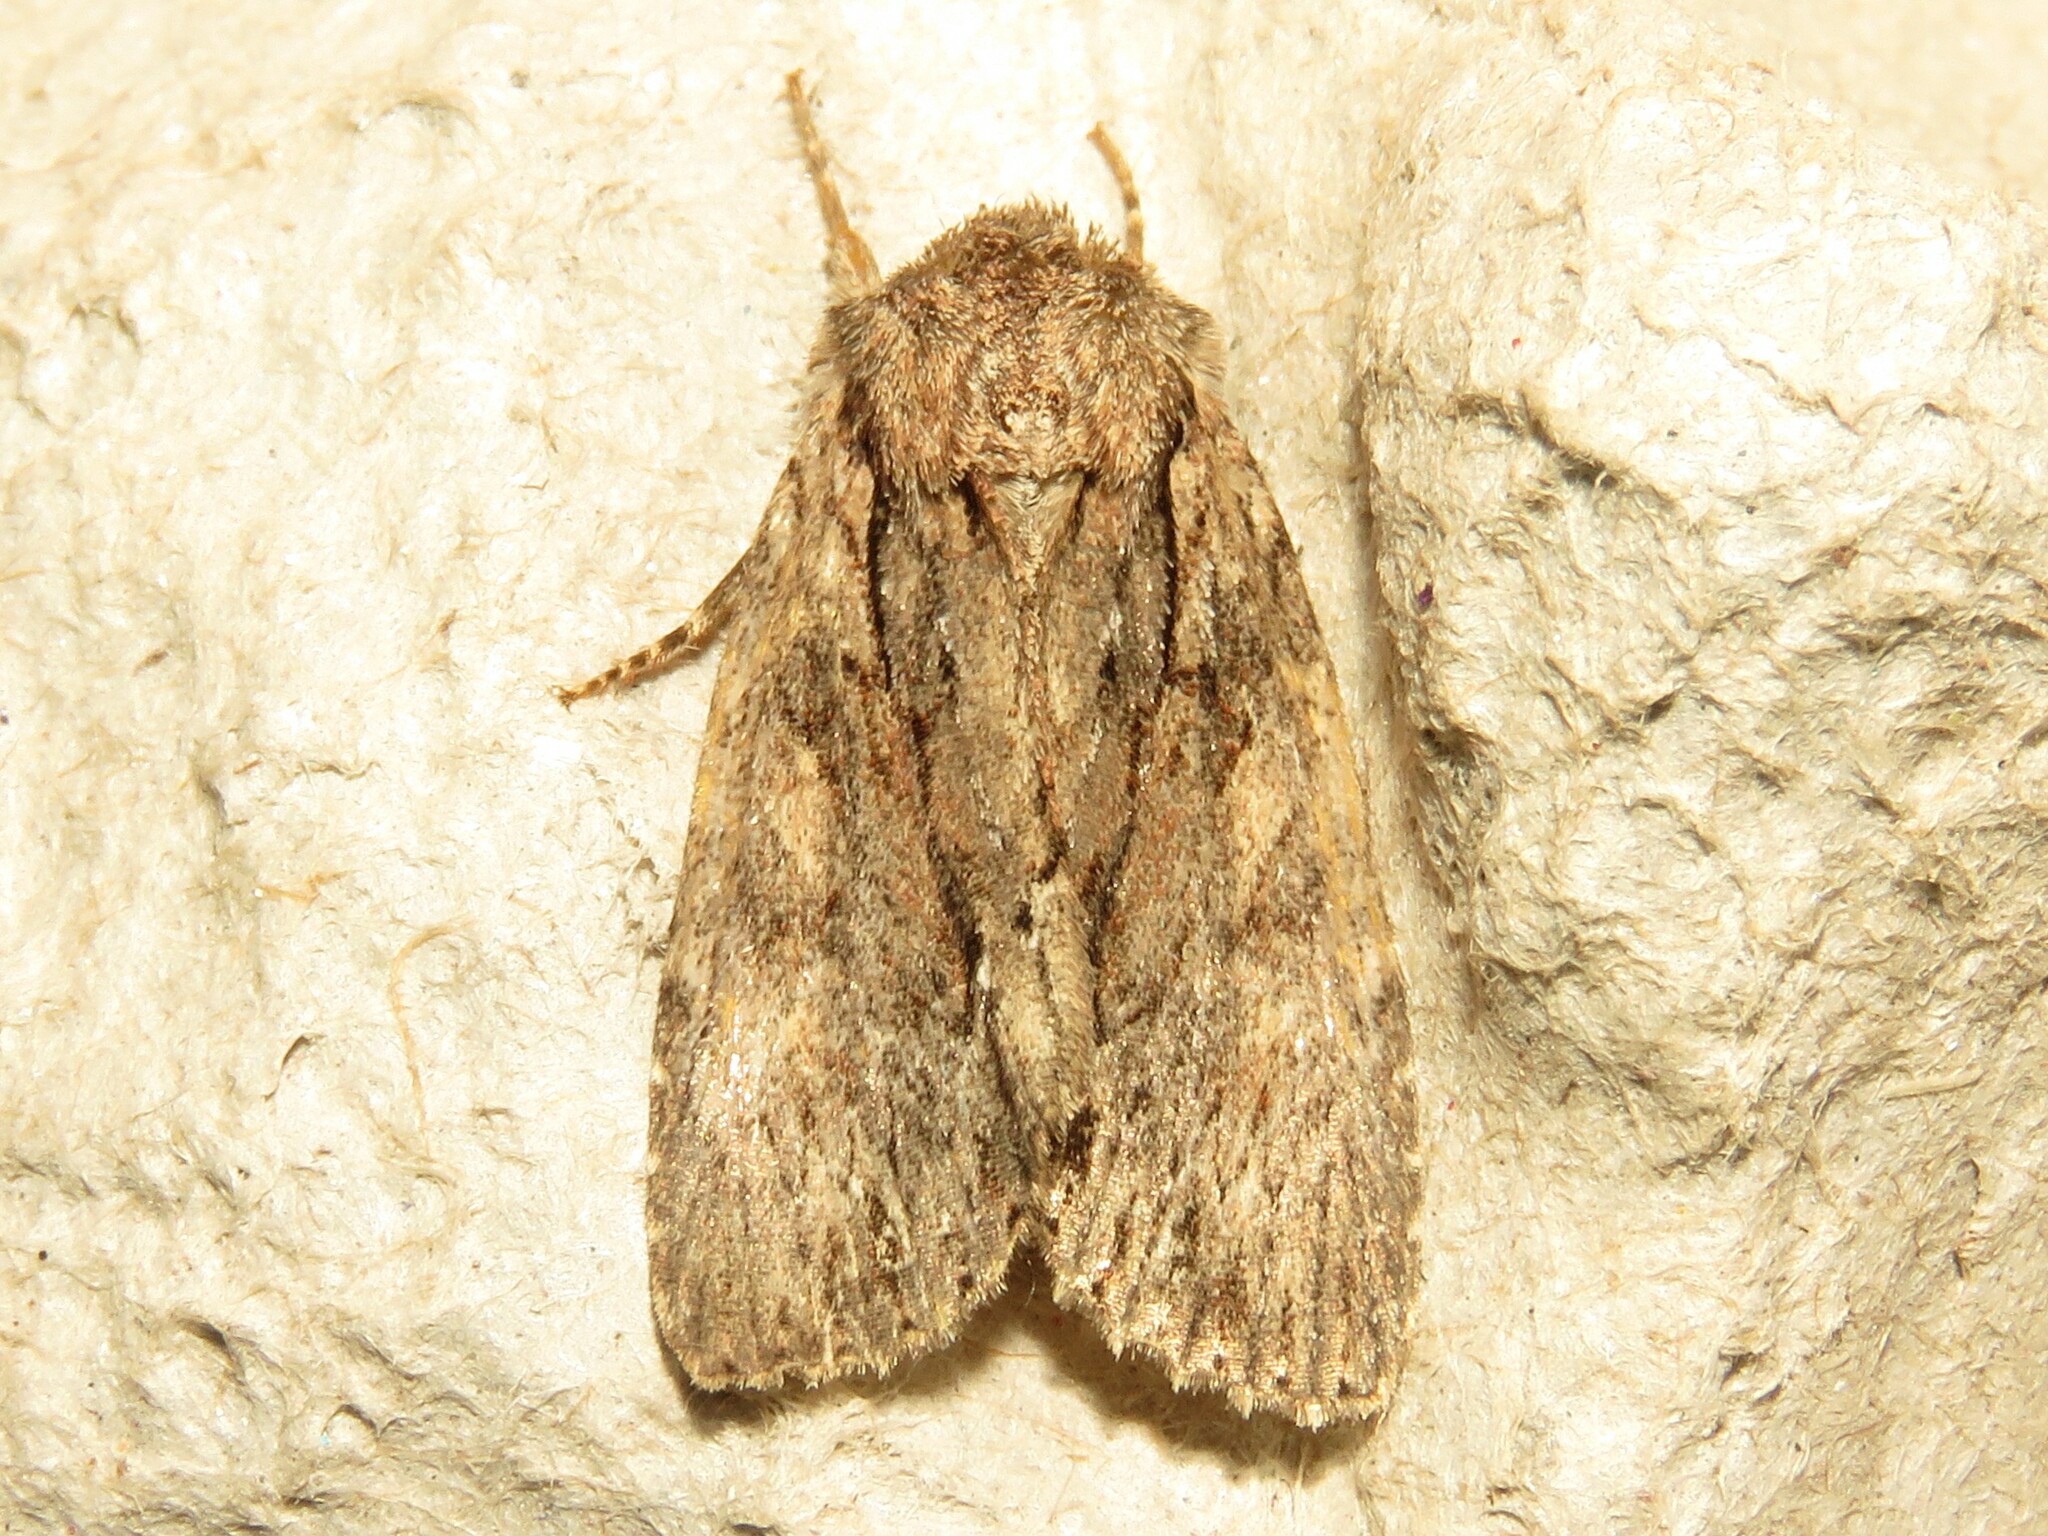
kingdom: Animalia
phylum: Arthropoda
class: Insecta
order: Lepidoptera
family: Noctuidae
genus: Achatia
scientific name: Achatia confusa
